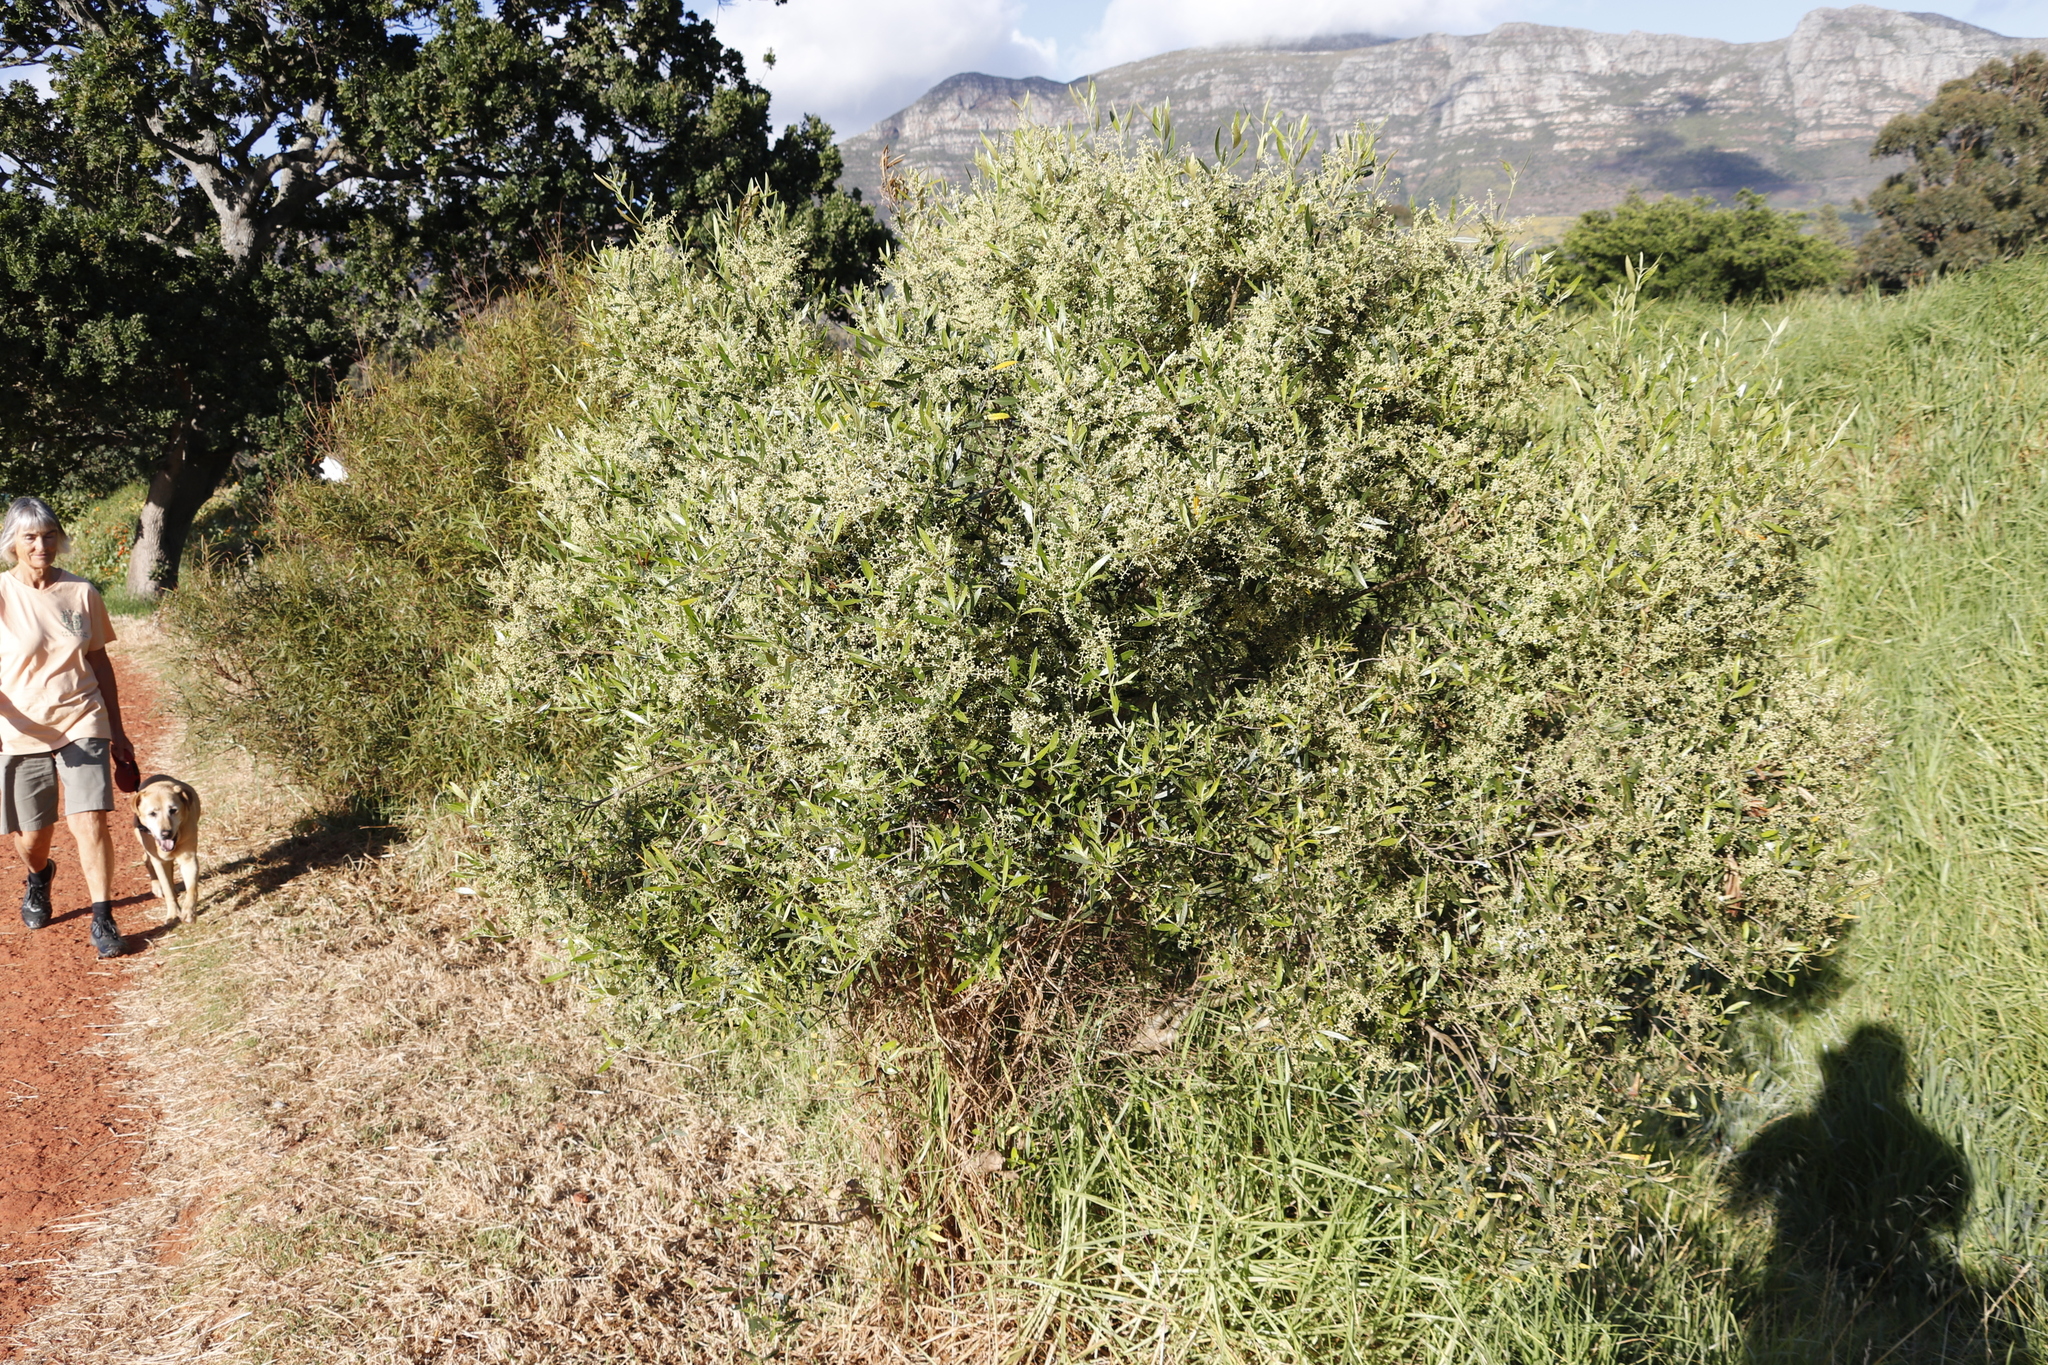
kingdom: Plantae
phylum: Tracheophyta
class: Magnoliopsida
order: Lamiales
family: Oleaceae
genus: Olea
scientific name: Olea europaea
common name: Olive
